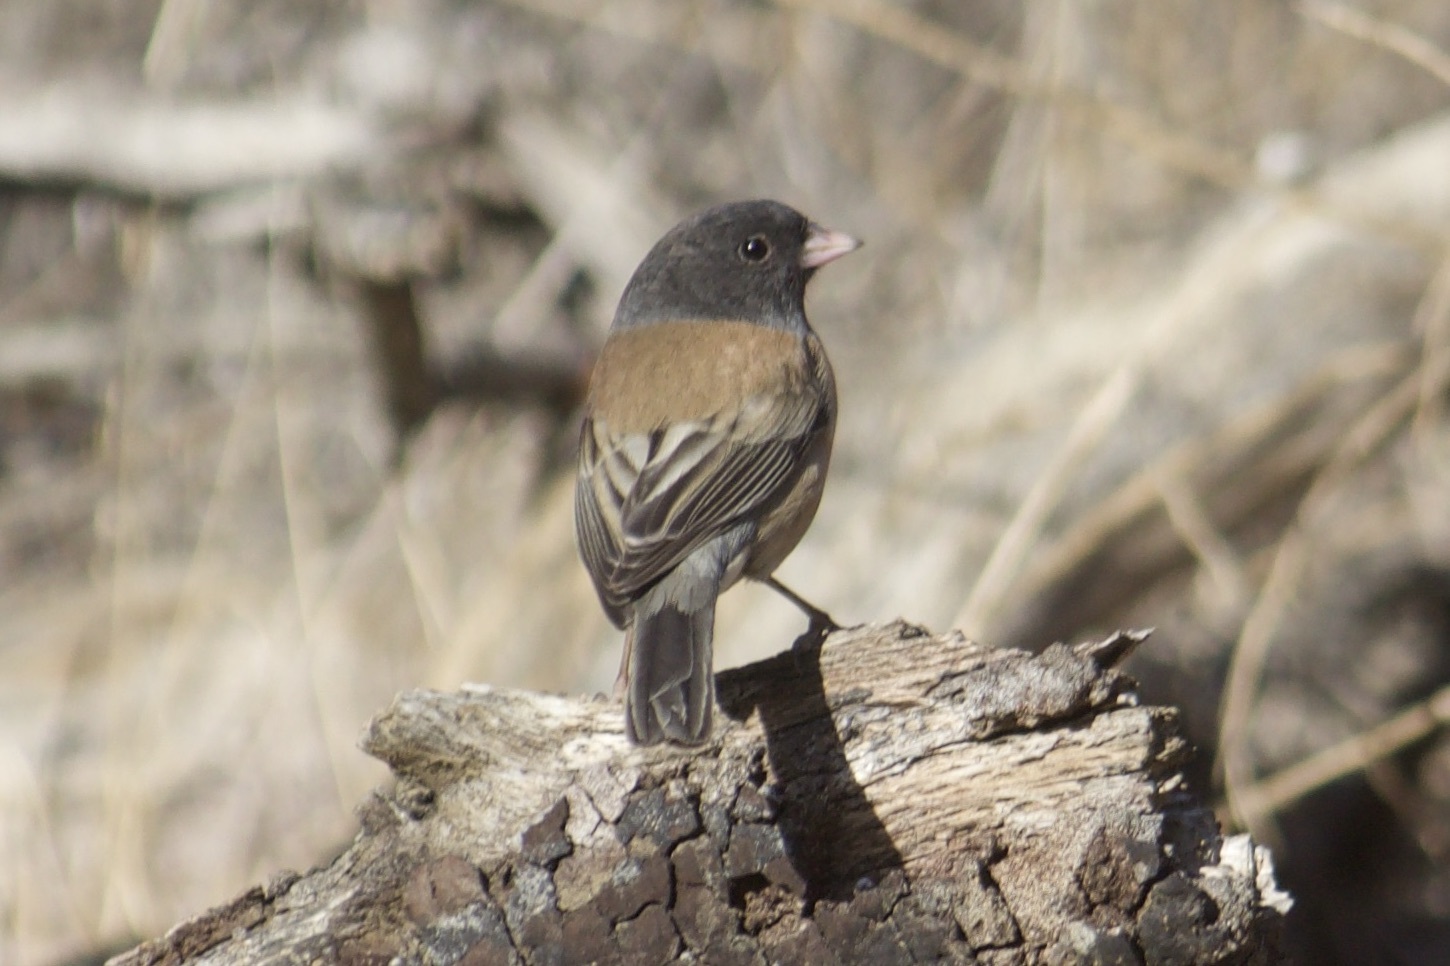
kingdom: Animalia
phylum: Chordata
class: Aves
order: Passeriformes
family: Passerellidae
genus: Junco
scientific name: Junco hyemalis
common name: Dark-eyed junco
